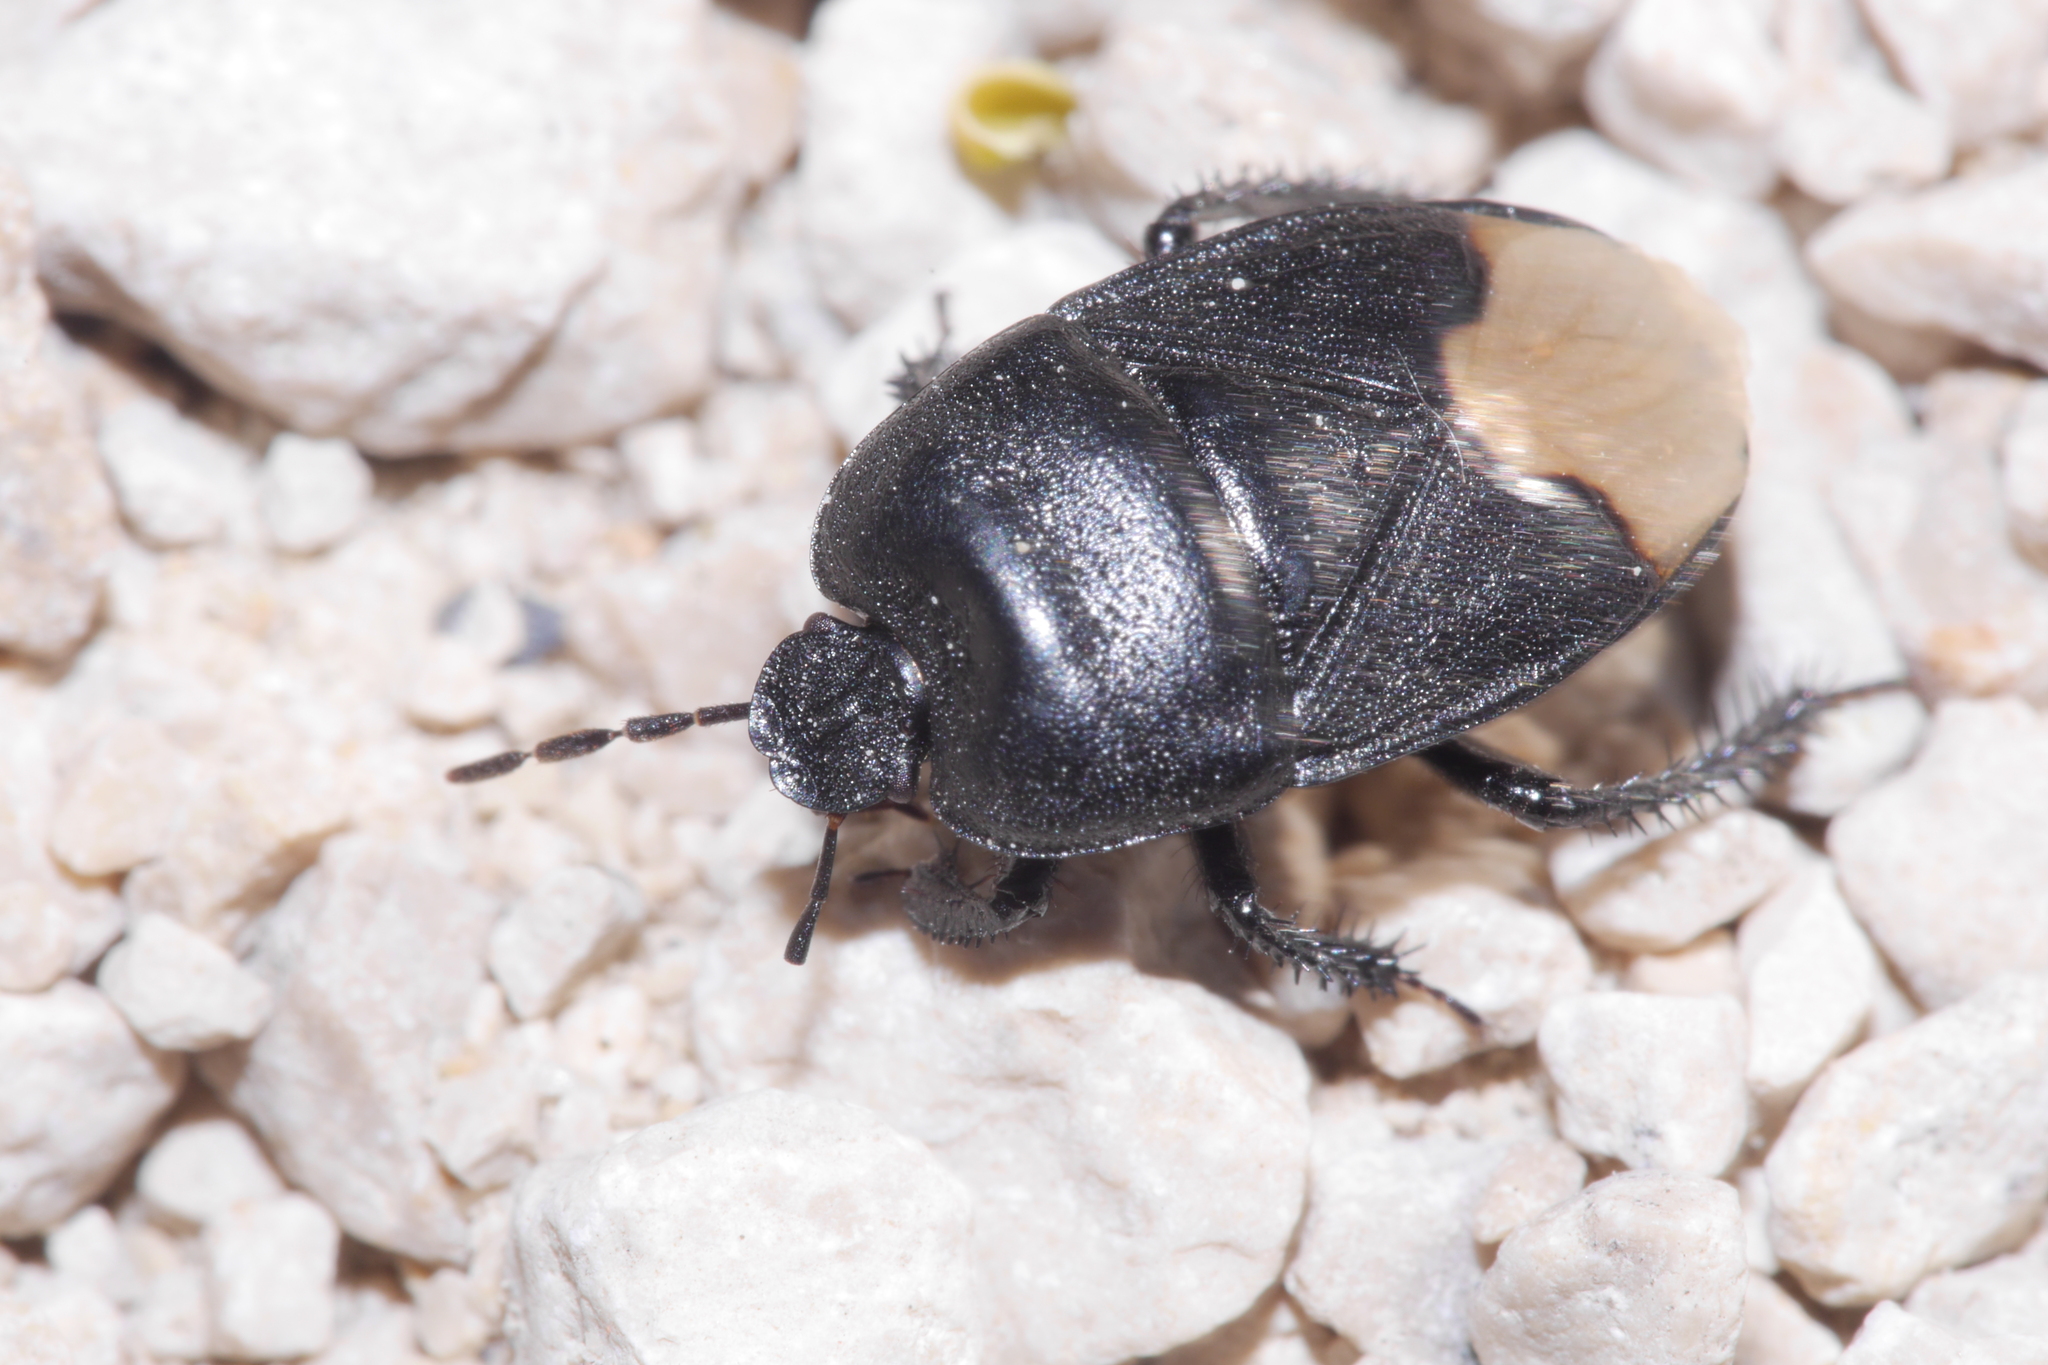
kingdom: Animalia
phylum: Arthropoda
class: Insecta
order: Hemiptera
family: Cydnidae
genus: Cydnus
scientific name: Cydnus aterrimus
